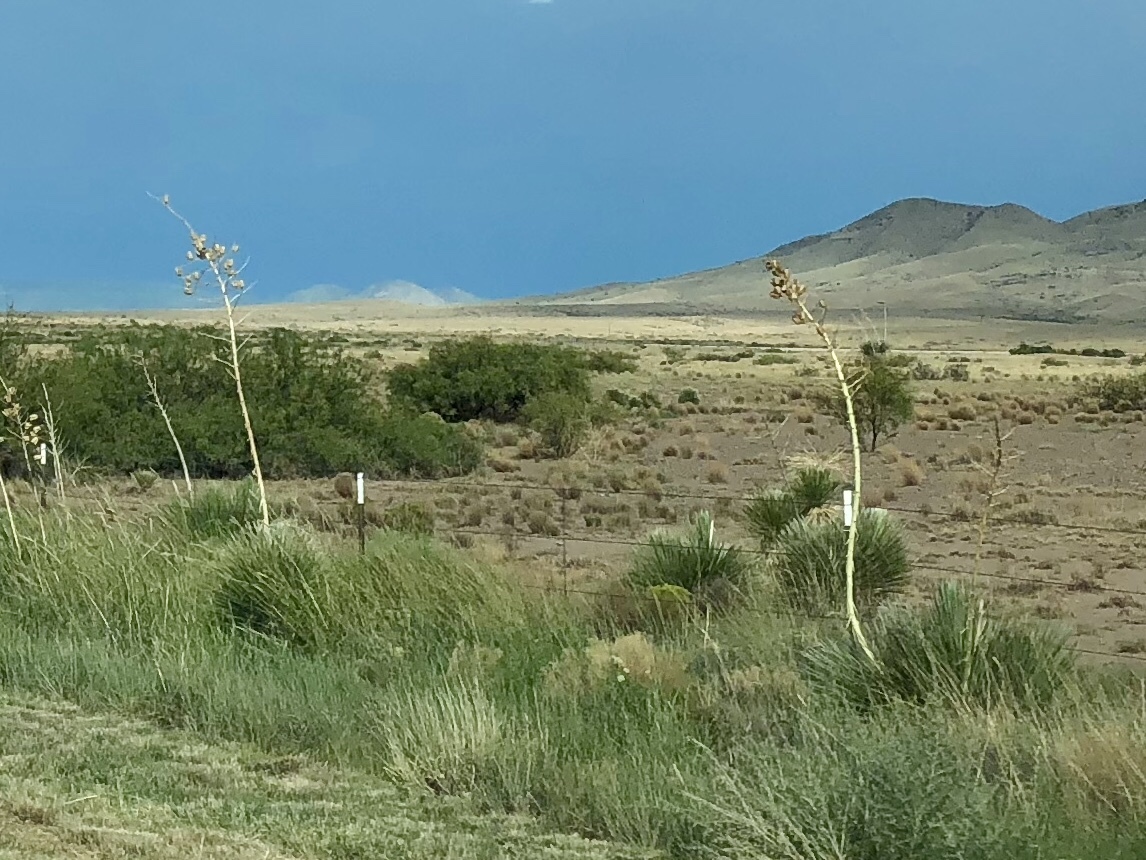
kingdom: Plantae
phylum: Tracheophyta
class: Liliopsida
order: Asparagales
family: Asparagaceae
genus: Yucca
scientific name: Yucca elata
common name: Palmella
